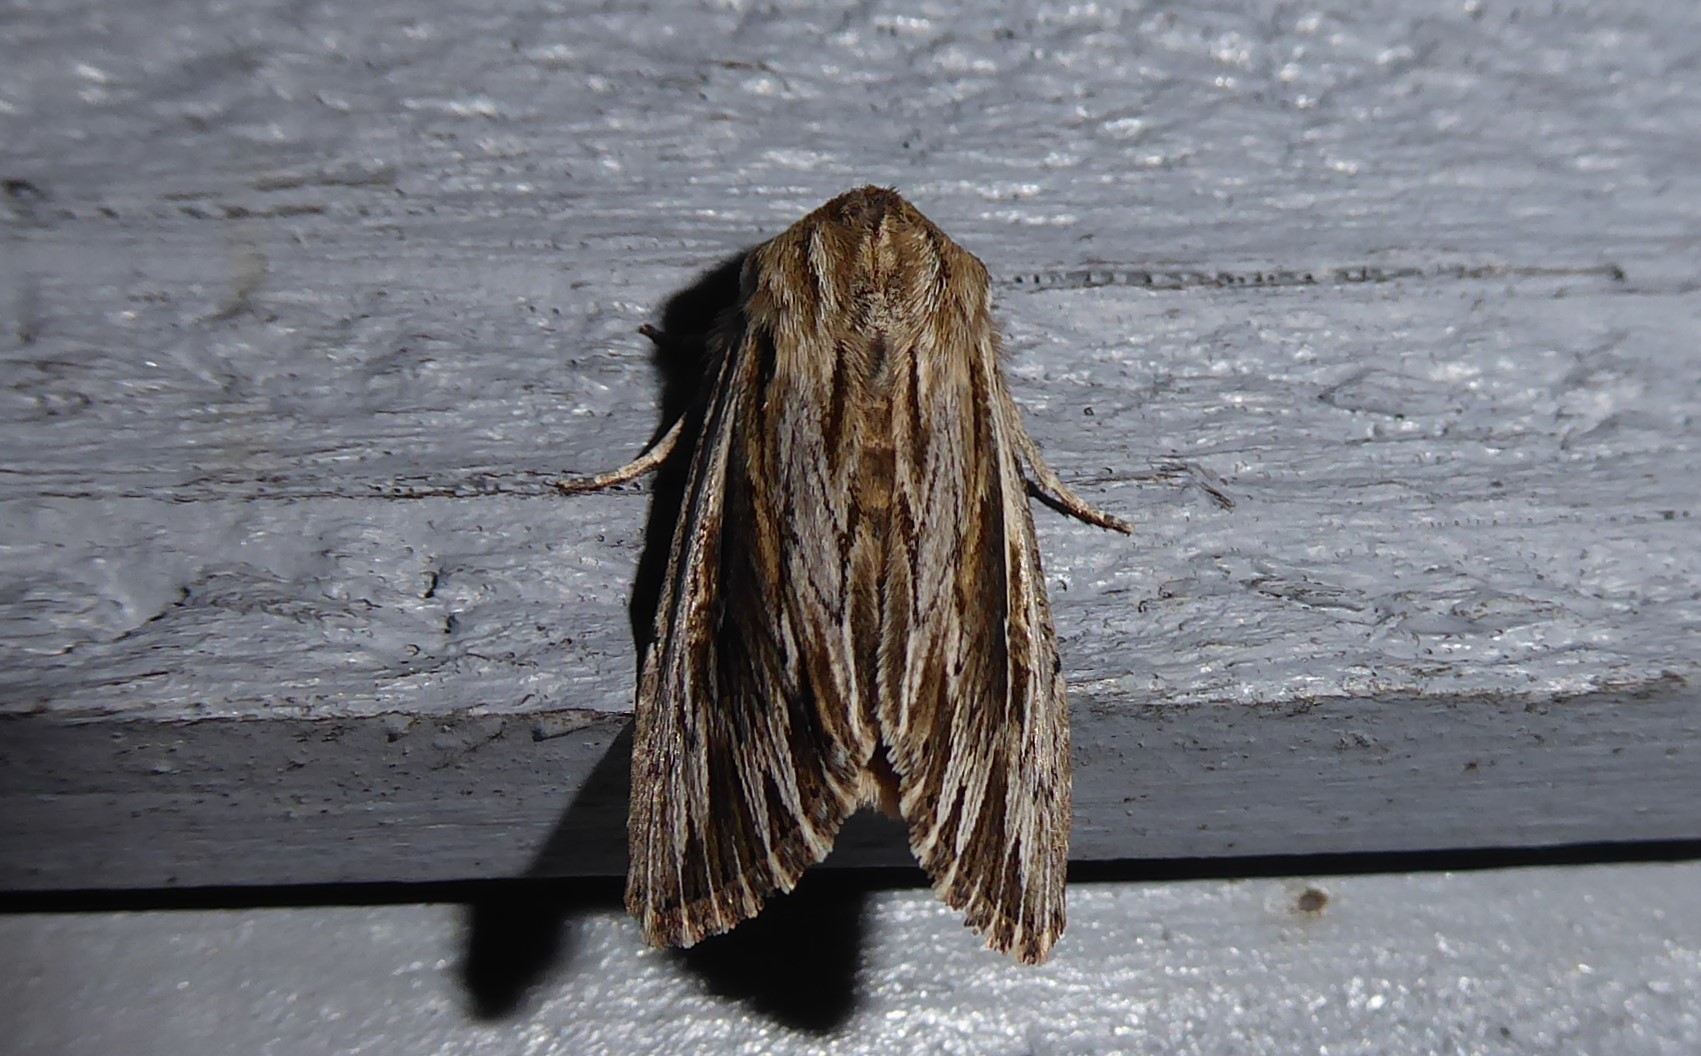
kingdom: Animalia
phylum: Arthropoda
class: Insecta
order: Lepidoptera
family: Noctuidae
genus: Persectania
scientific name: Persectania aversa
